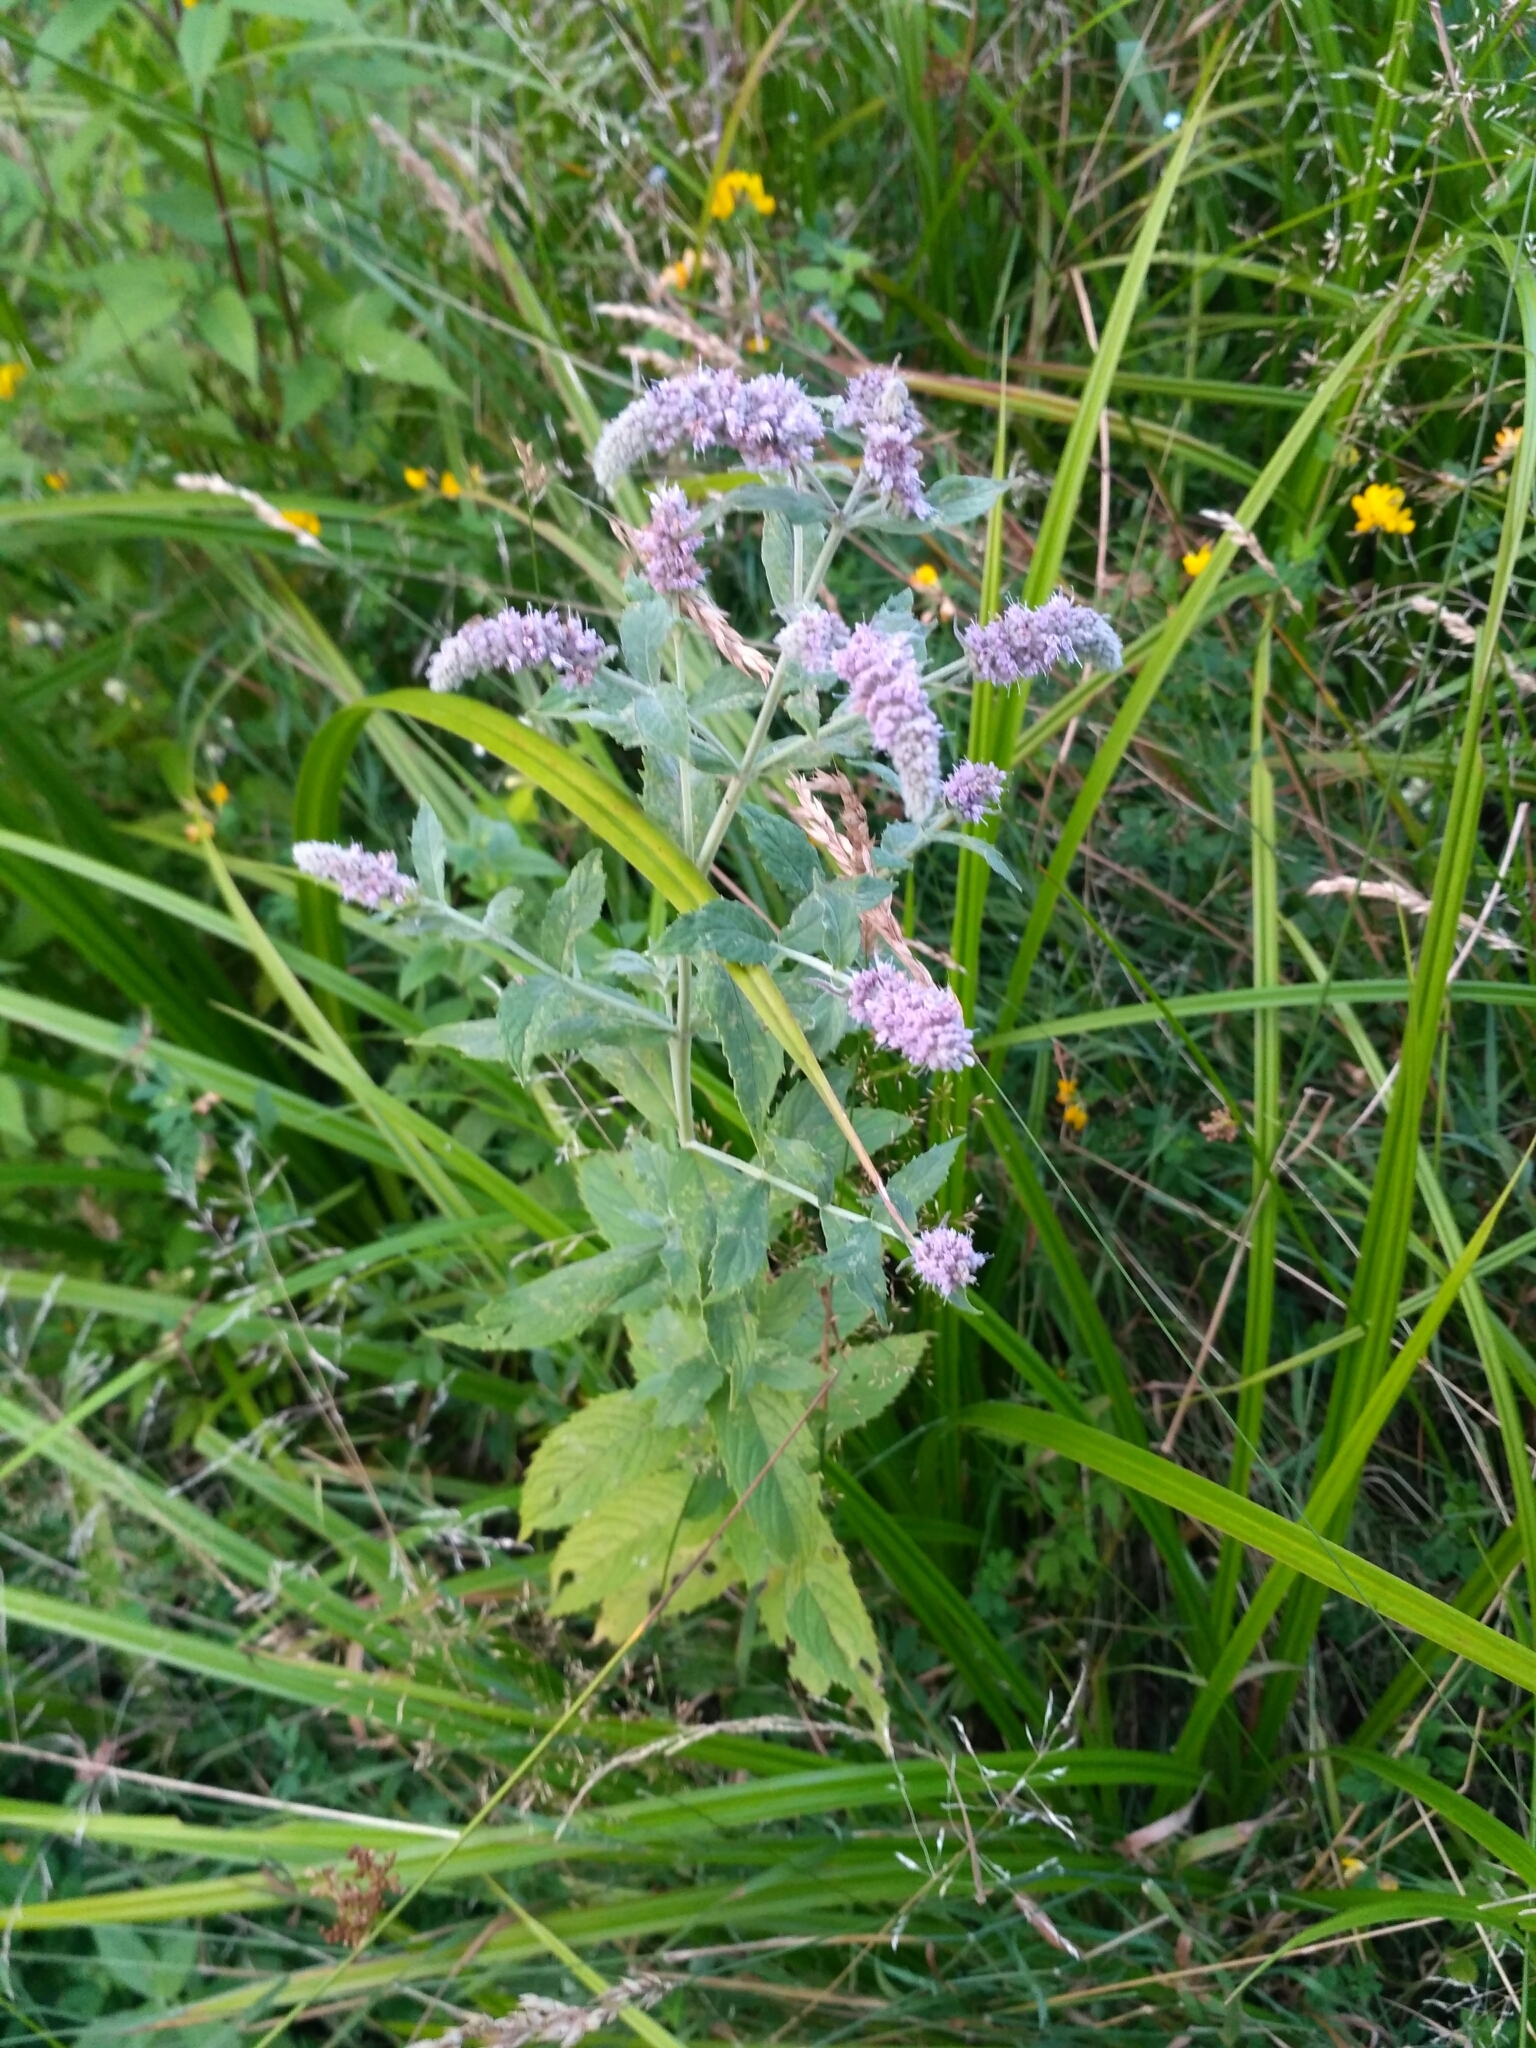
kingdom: Plantae
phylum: Tracheophyta
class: Magnoliopsida
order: Lamiales
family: Lamiaceae
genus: Mentha
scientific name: Mentha longifolia
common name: Horse mint
